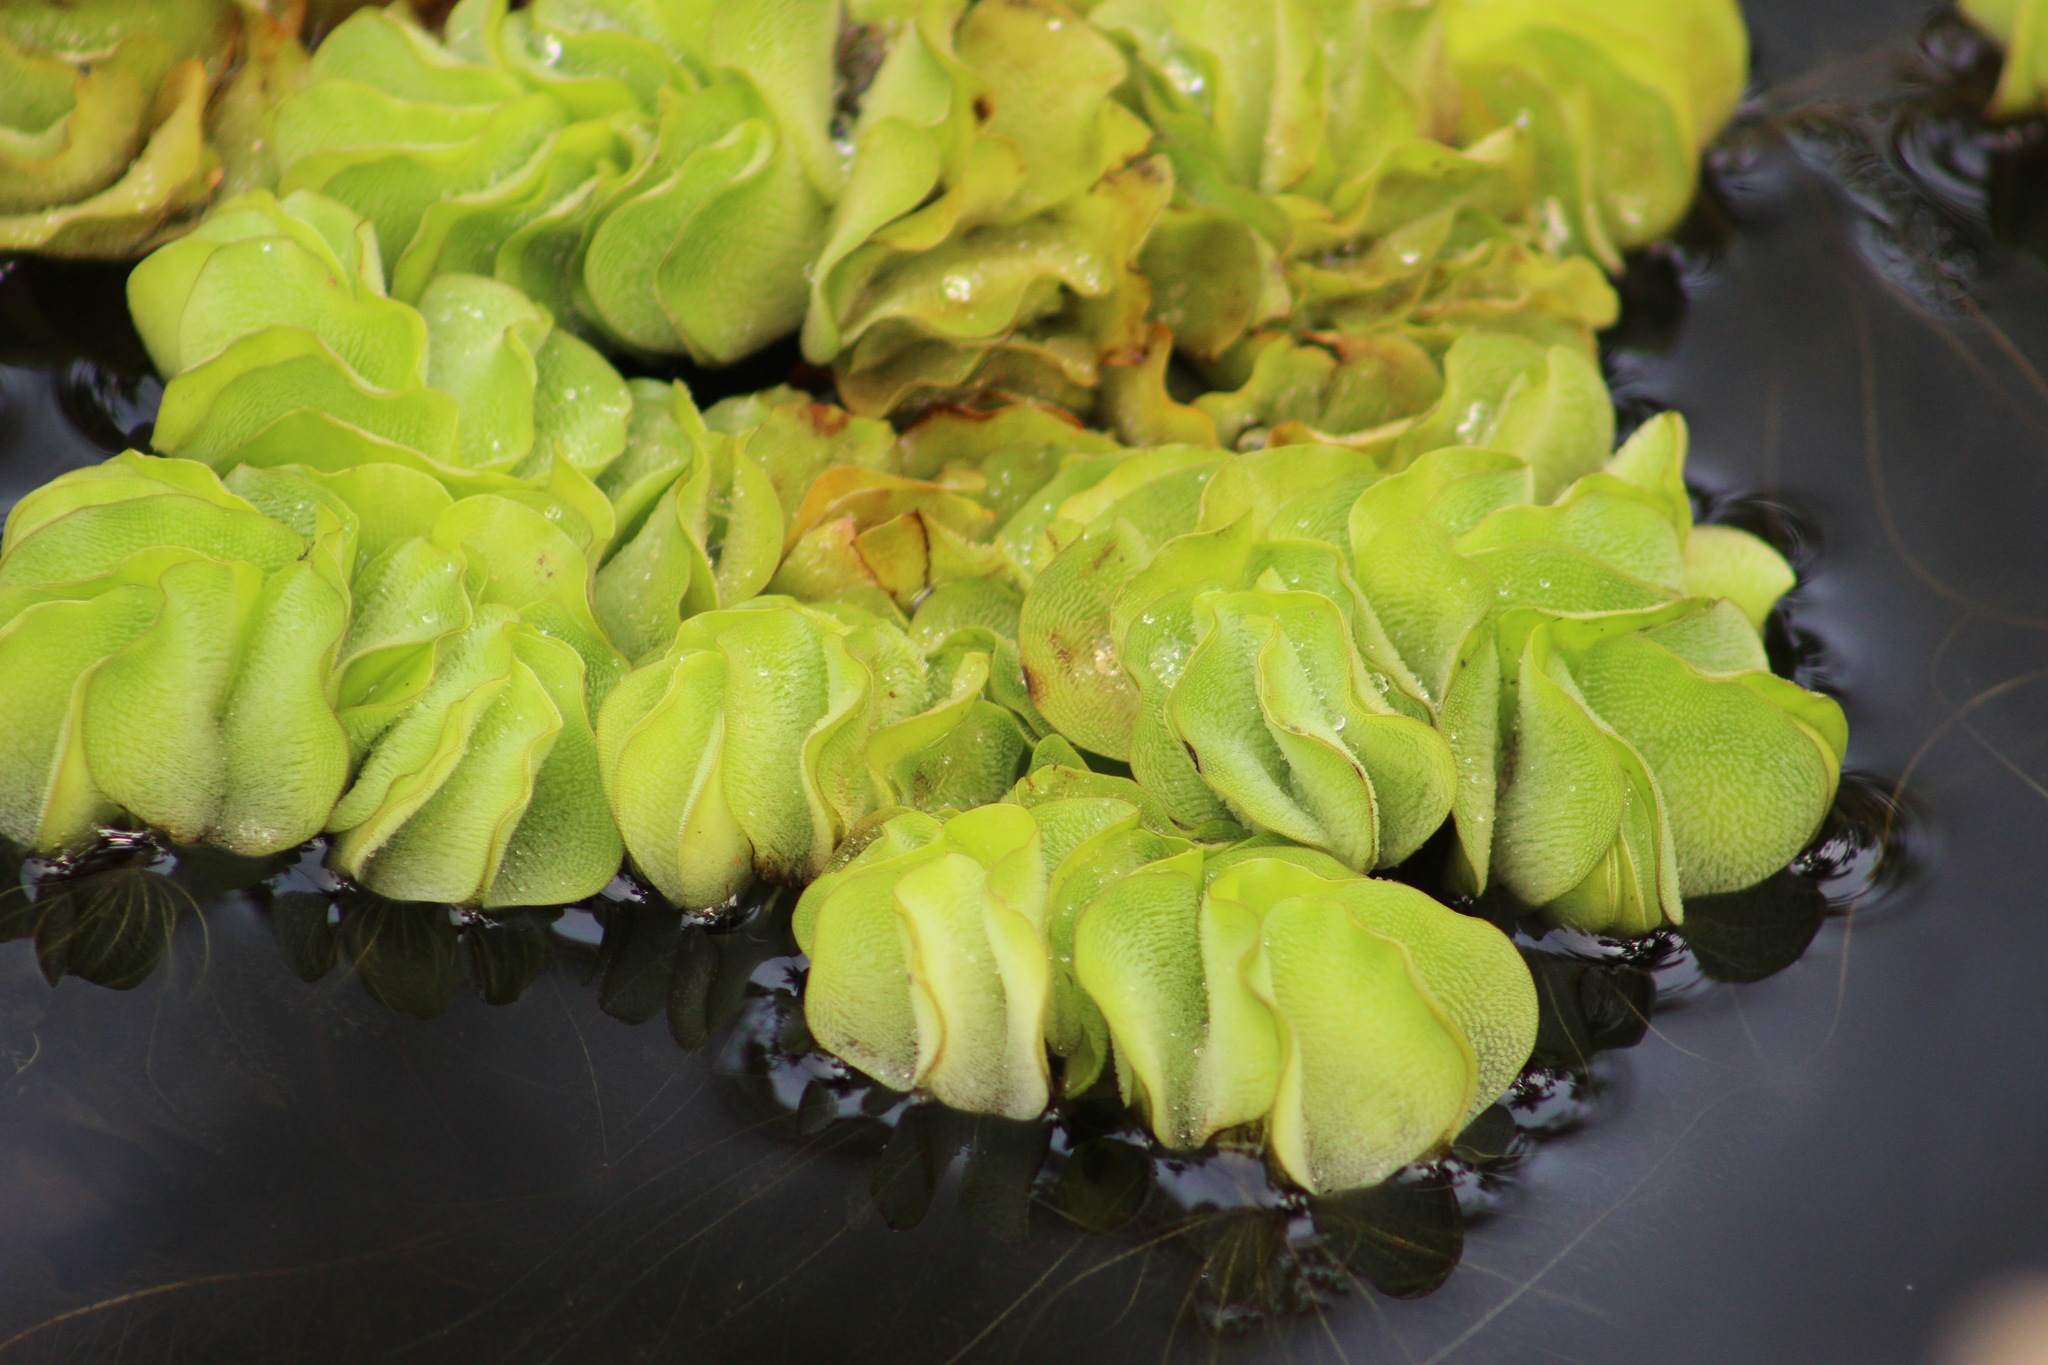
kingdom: Plantae
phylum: Tracheophyta
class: Polypodiopsida
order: Salviniales
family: Salviniaceae
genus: Salvinia
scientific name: Salvinia hastata
